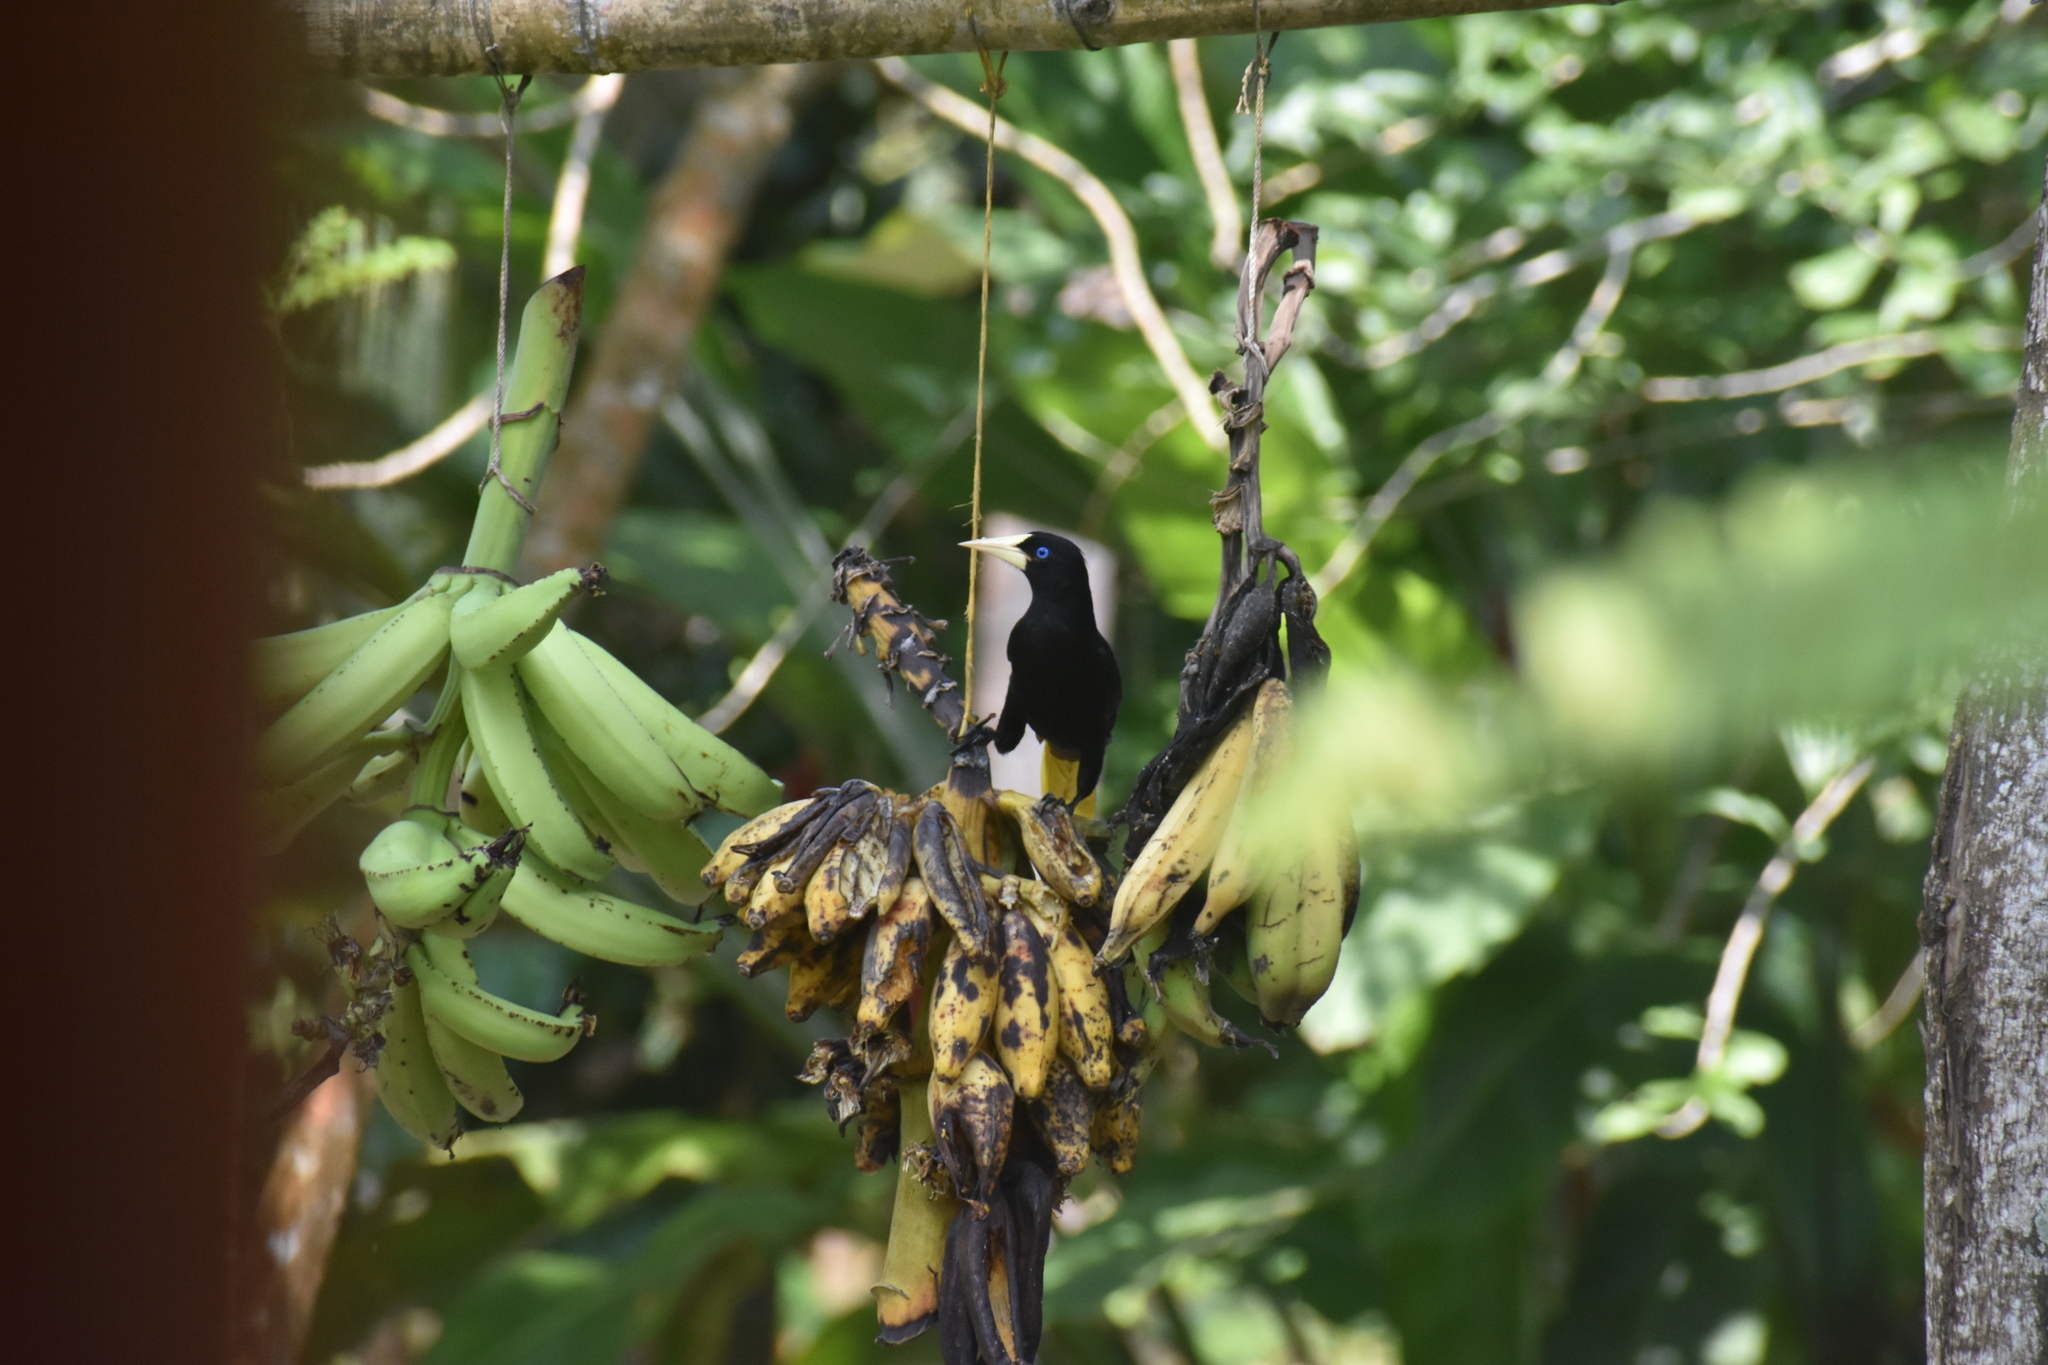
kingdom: Animalia
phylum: Chordata
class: Aves
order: Passeriformes
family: Icteridae
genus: Psarocolius
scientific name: Psarocolius decumanus
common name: Crested oropendola
